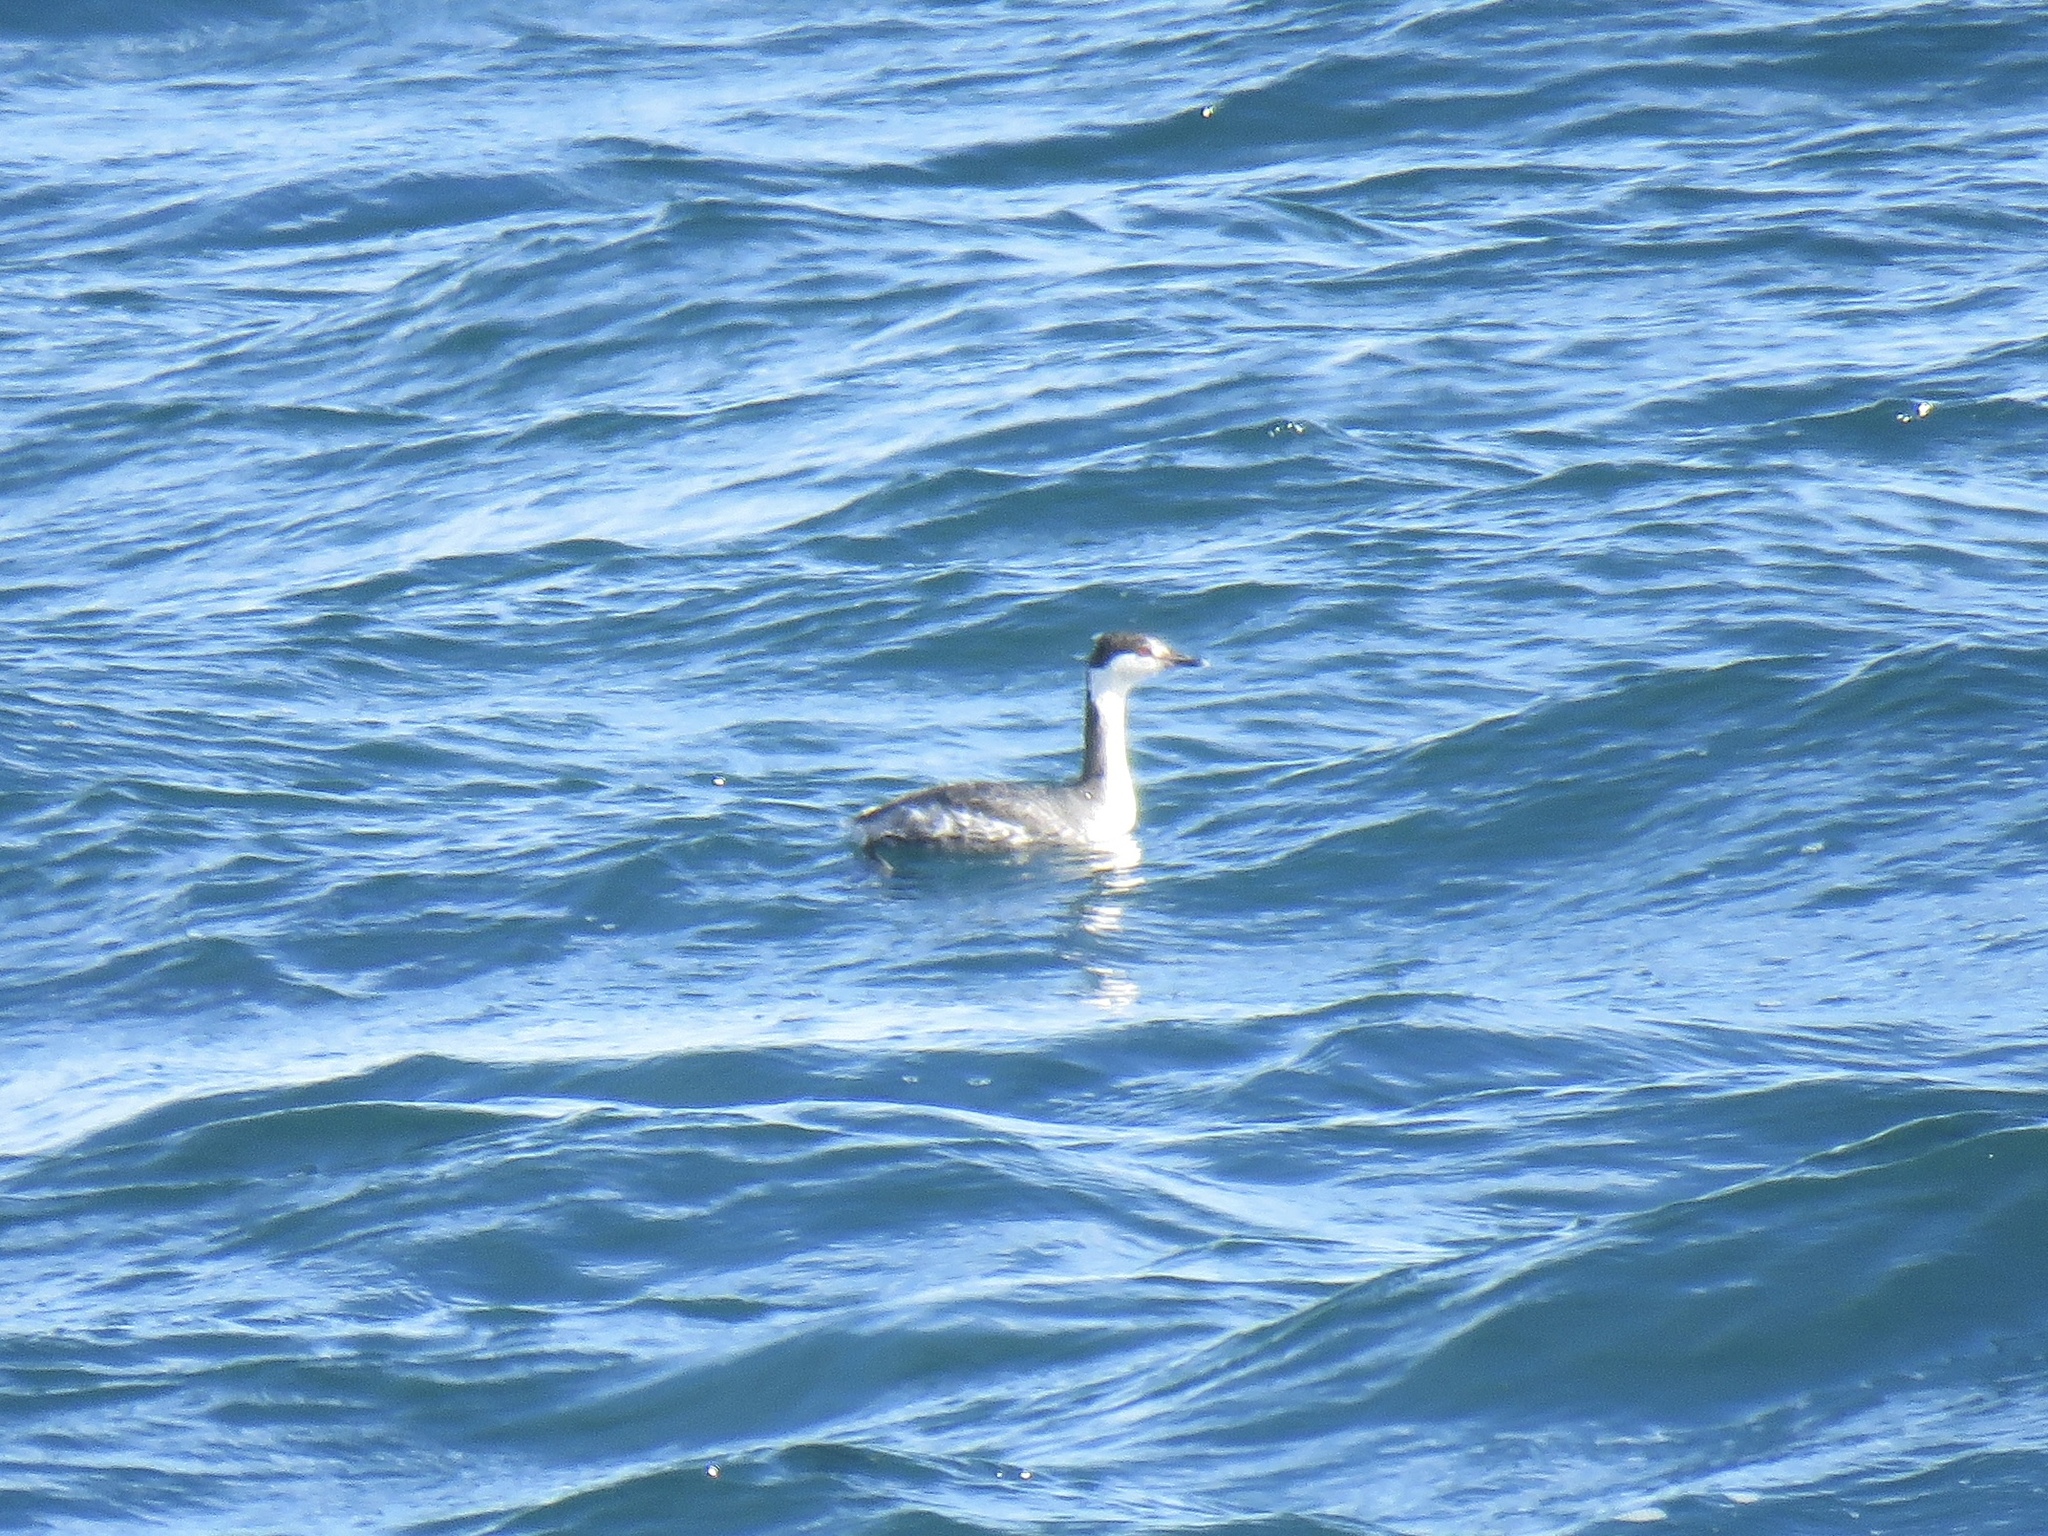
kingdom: Animalia
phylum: Chordata
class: Aves
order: Podicipediformes
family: Podicipedidae
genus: Podiceps
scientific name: Podiceps auritus
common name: Horned grebe
